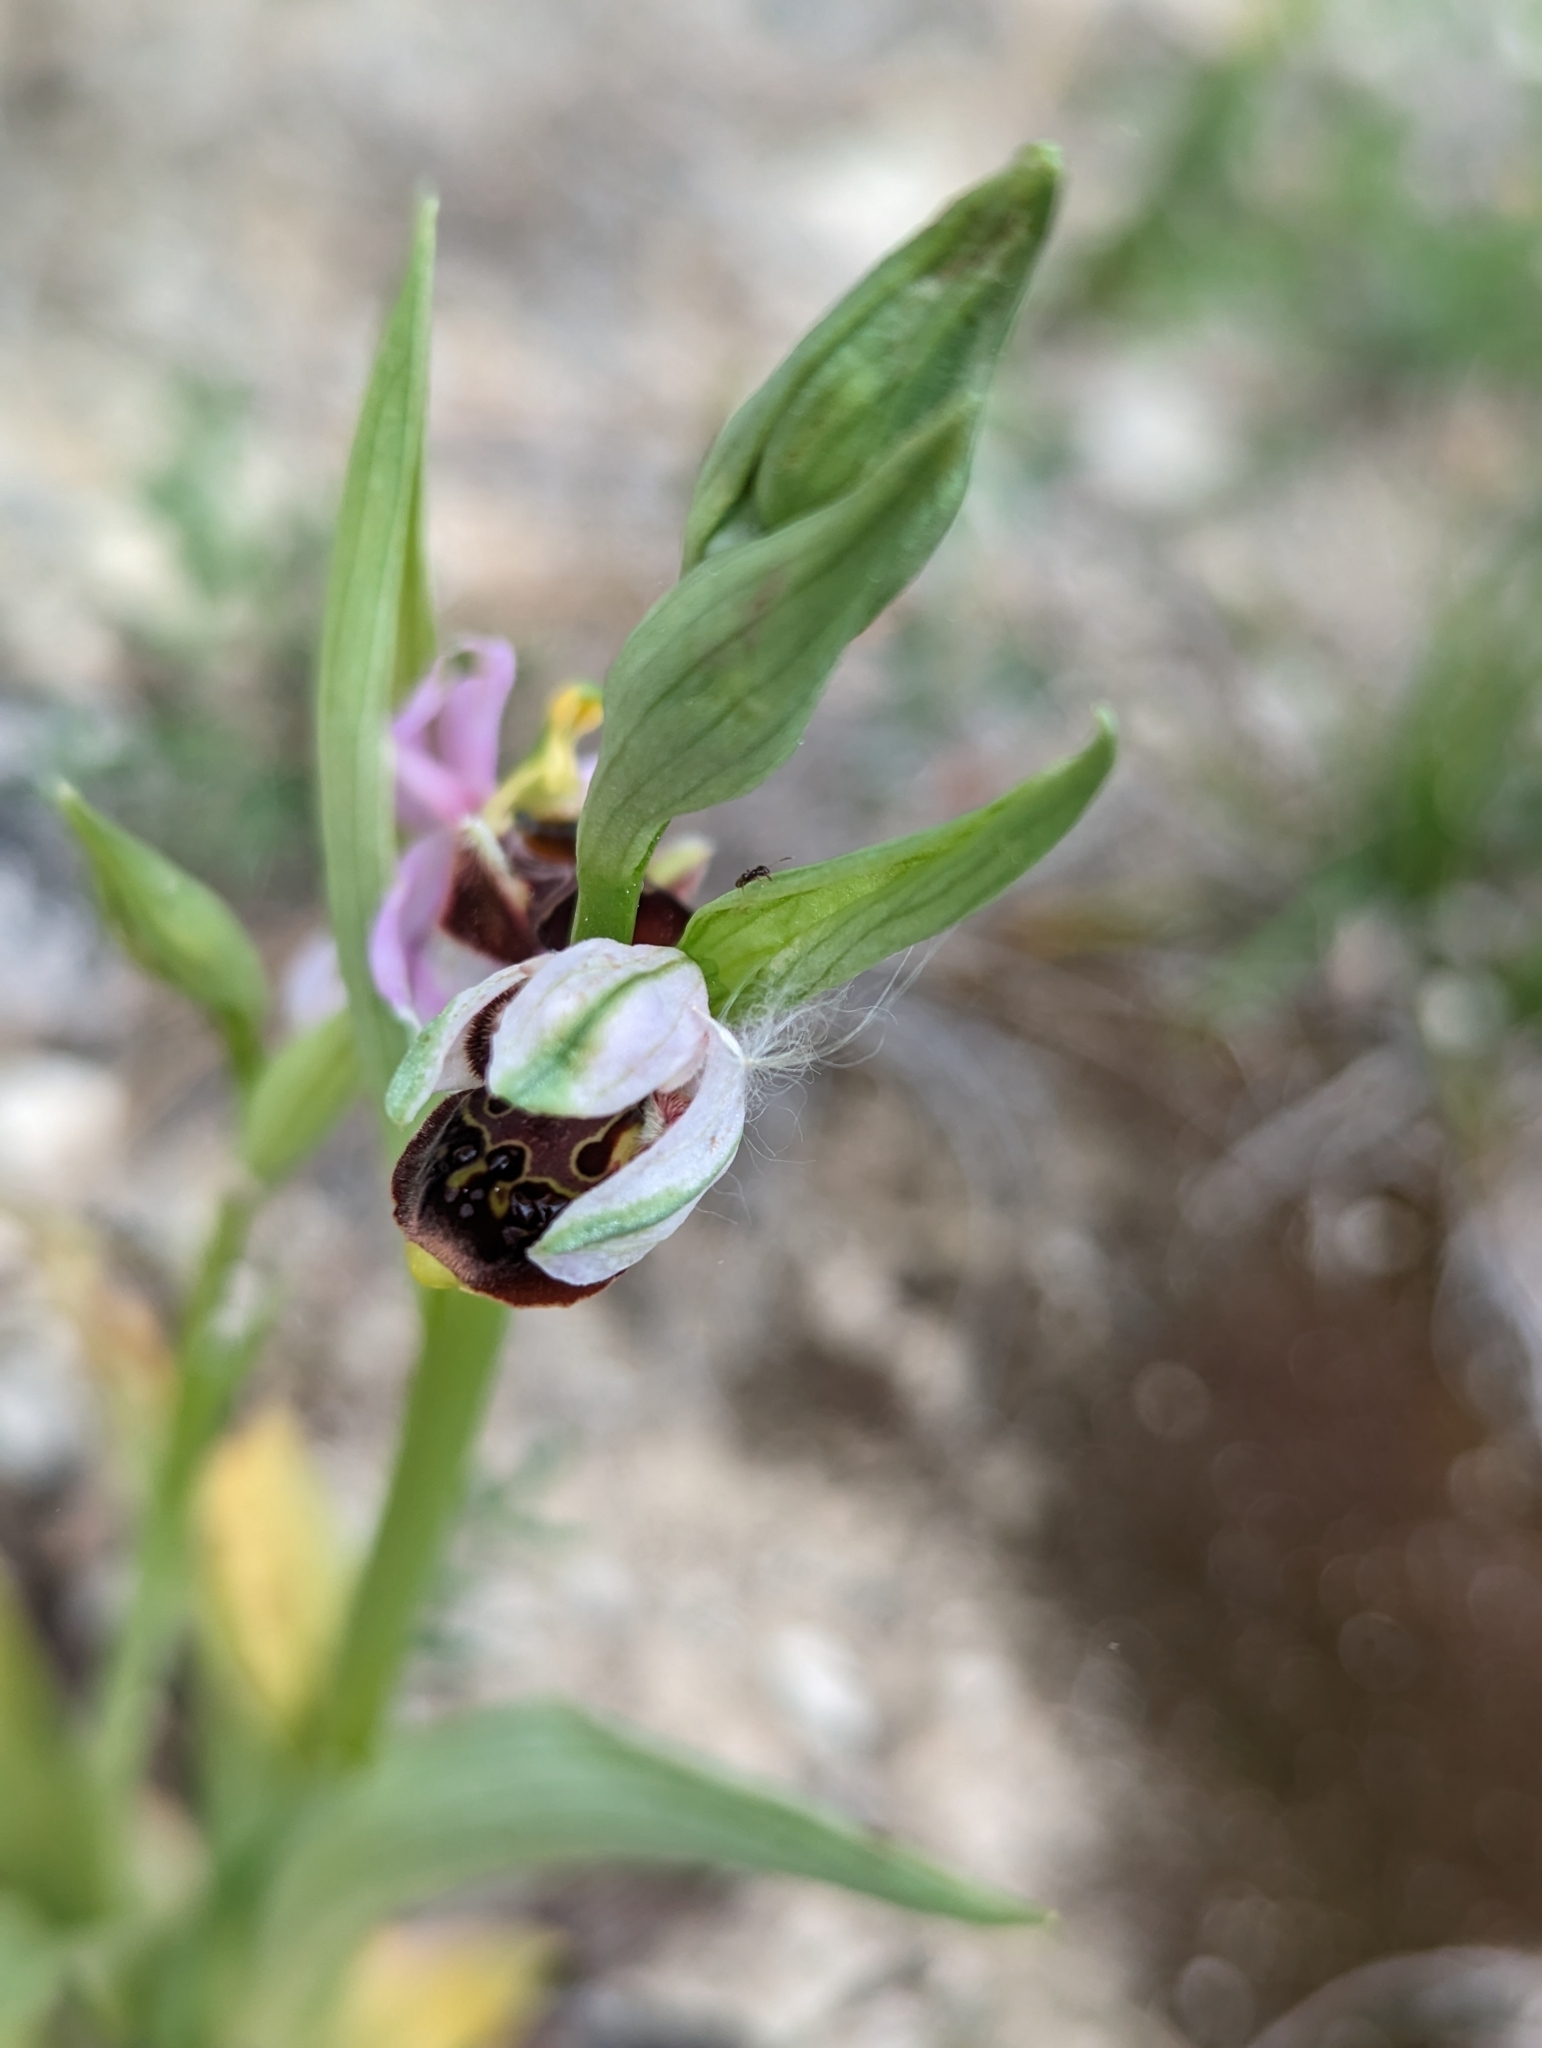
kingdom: Plantae
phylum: Tracheophyta
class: Liliopsida
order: Asparagales
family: Orchidaceae
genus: Ophrys
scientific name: Ophrys scolopax
